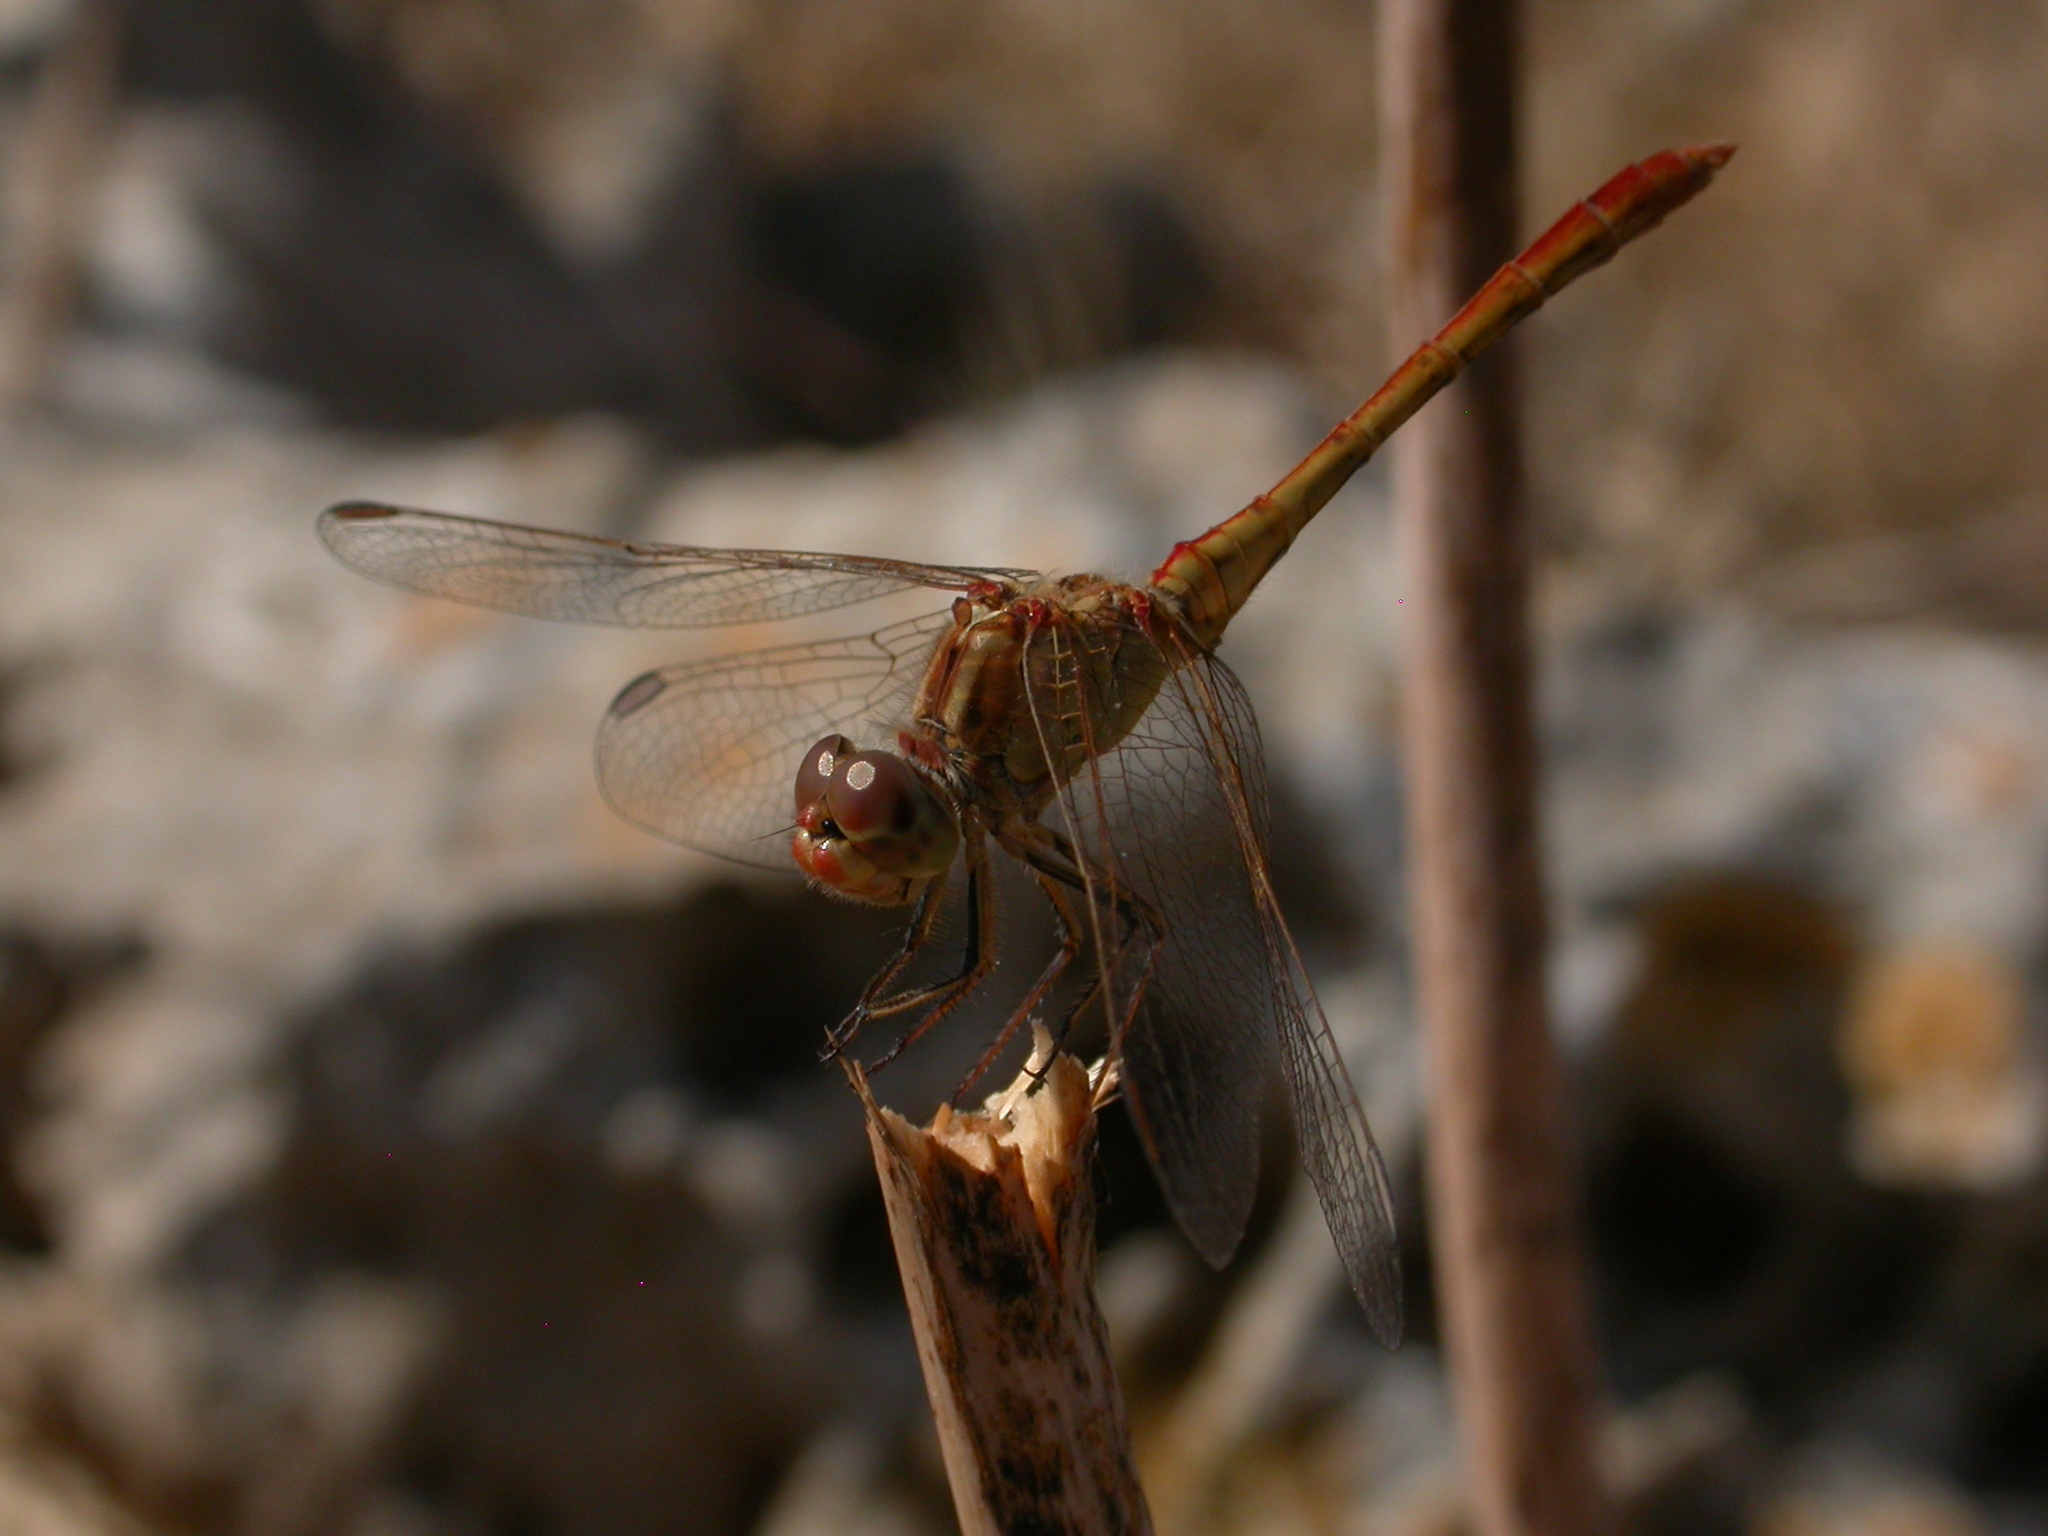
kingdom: Animalia
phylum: Arthropoda
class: Insecta
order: Odonata
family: Libellulidae
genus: Sympetrum
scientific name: Sympetrum meridionale
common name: Southern darter
